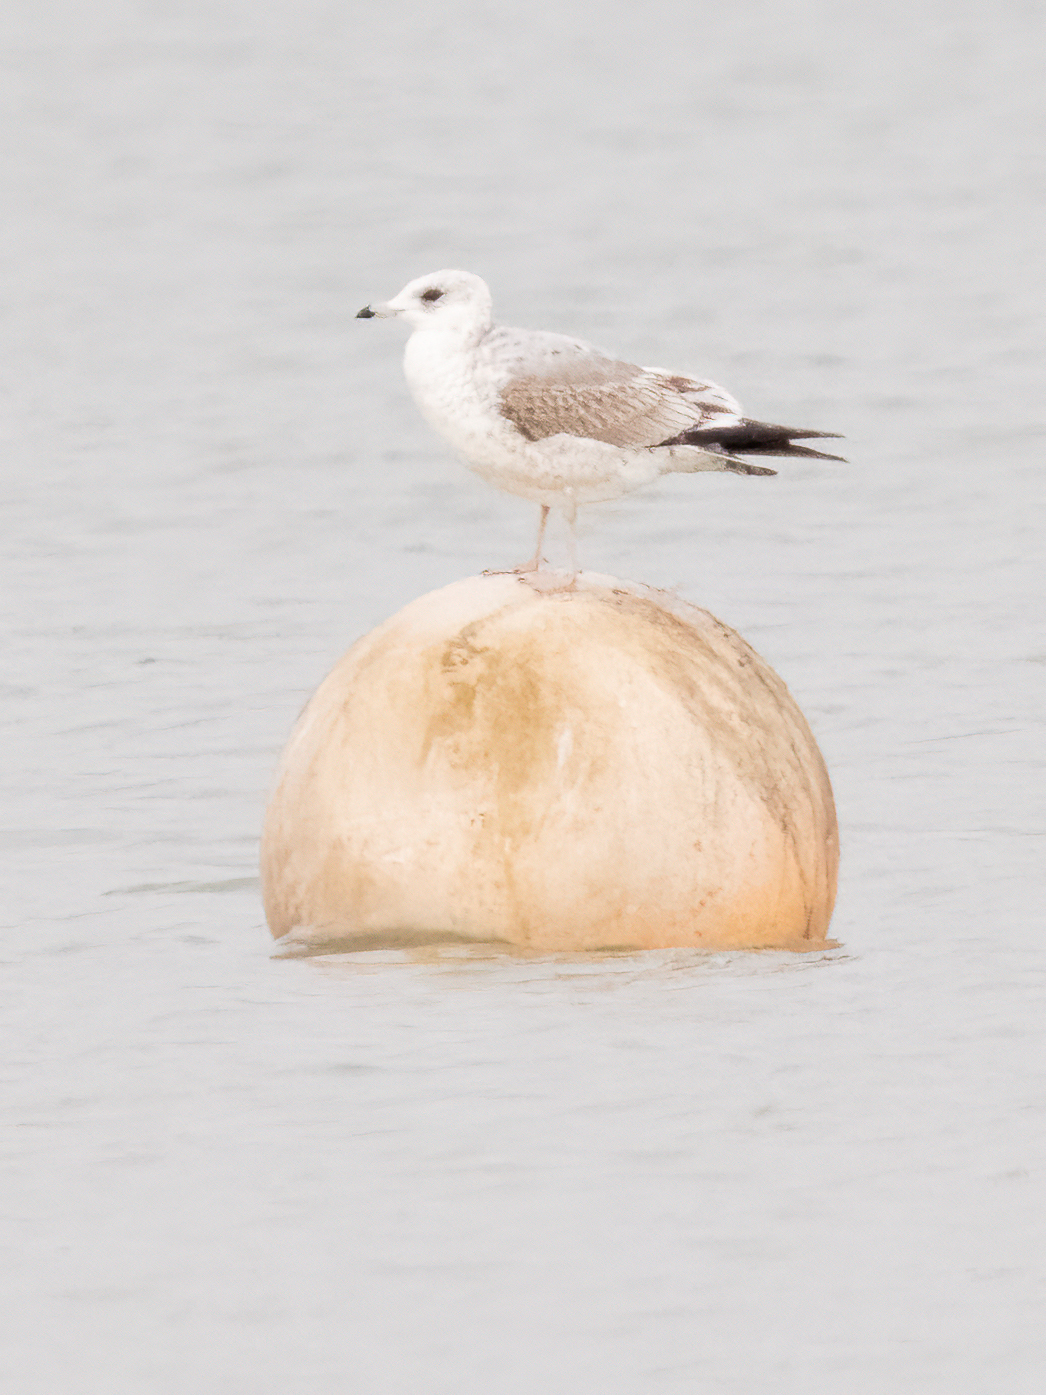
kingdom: Animalia
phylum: Chordata
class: Aves
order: Charadriiformes
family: Laridae
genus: Larus
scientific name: Larus canus
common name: Mew gull
